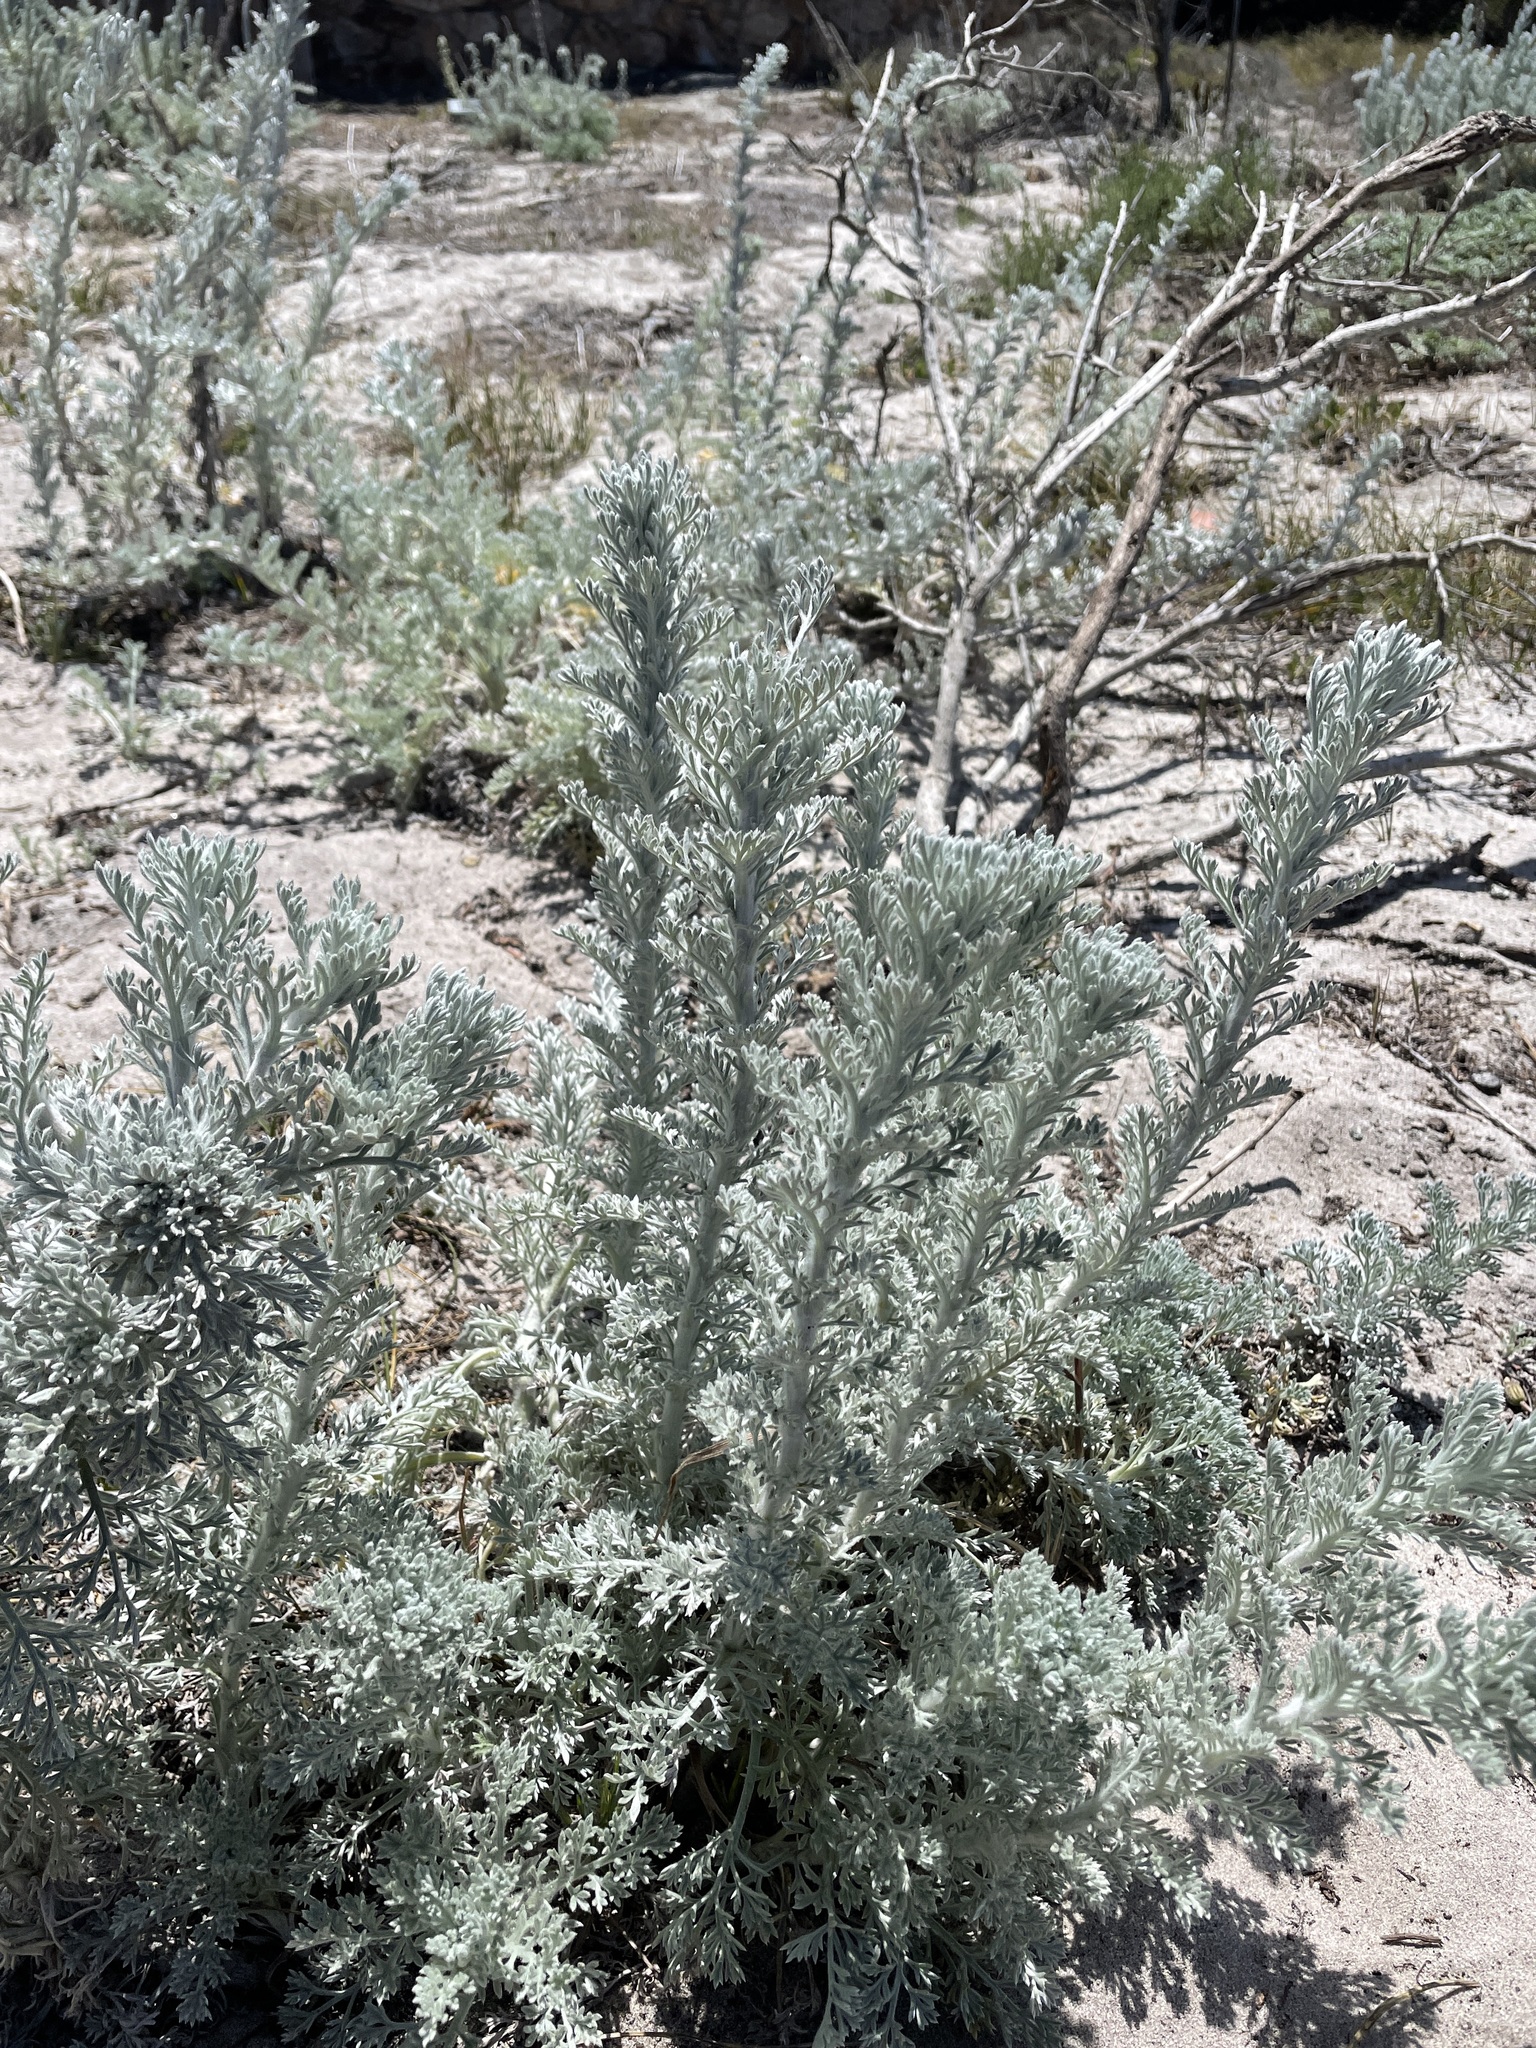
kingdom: Plantae
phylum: Tracheophyta
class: Magnoliopsida
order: Asterales
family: Asteraceae
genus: Artemisia
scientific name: Artemisia pycnocephala
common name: Coastal sagewort
